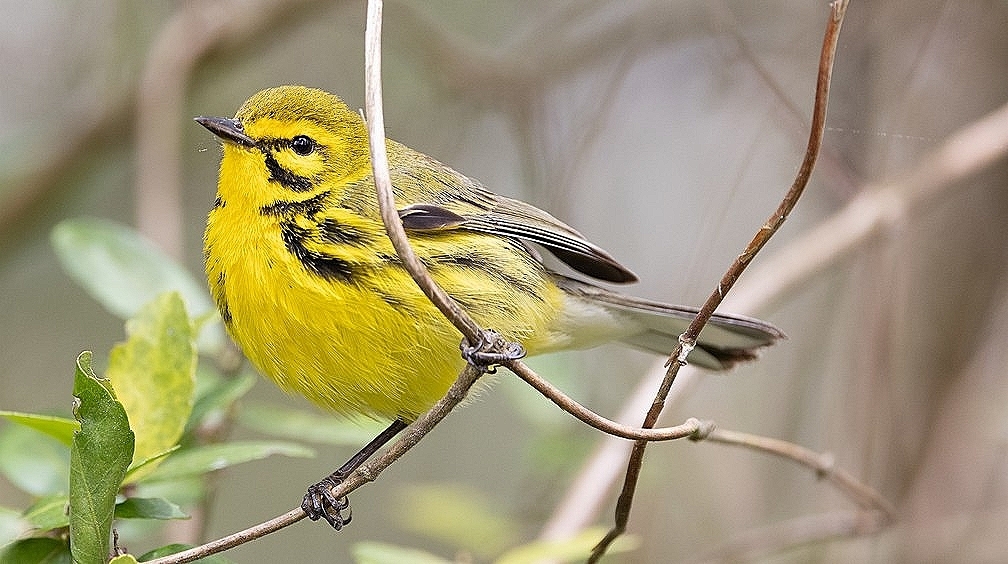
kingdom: Animalia
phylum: Chordata
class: Aves
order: Passeriformes
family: Parulidae
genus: Setophaga
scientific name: Setophaga discolor
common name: Prairie warbler
